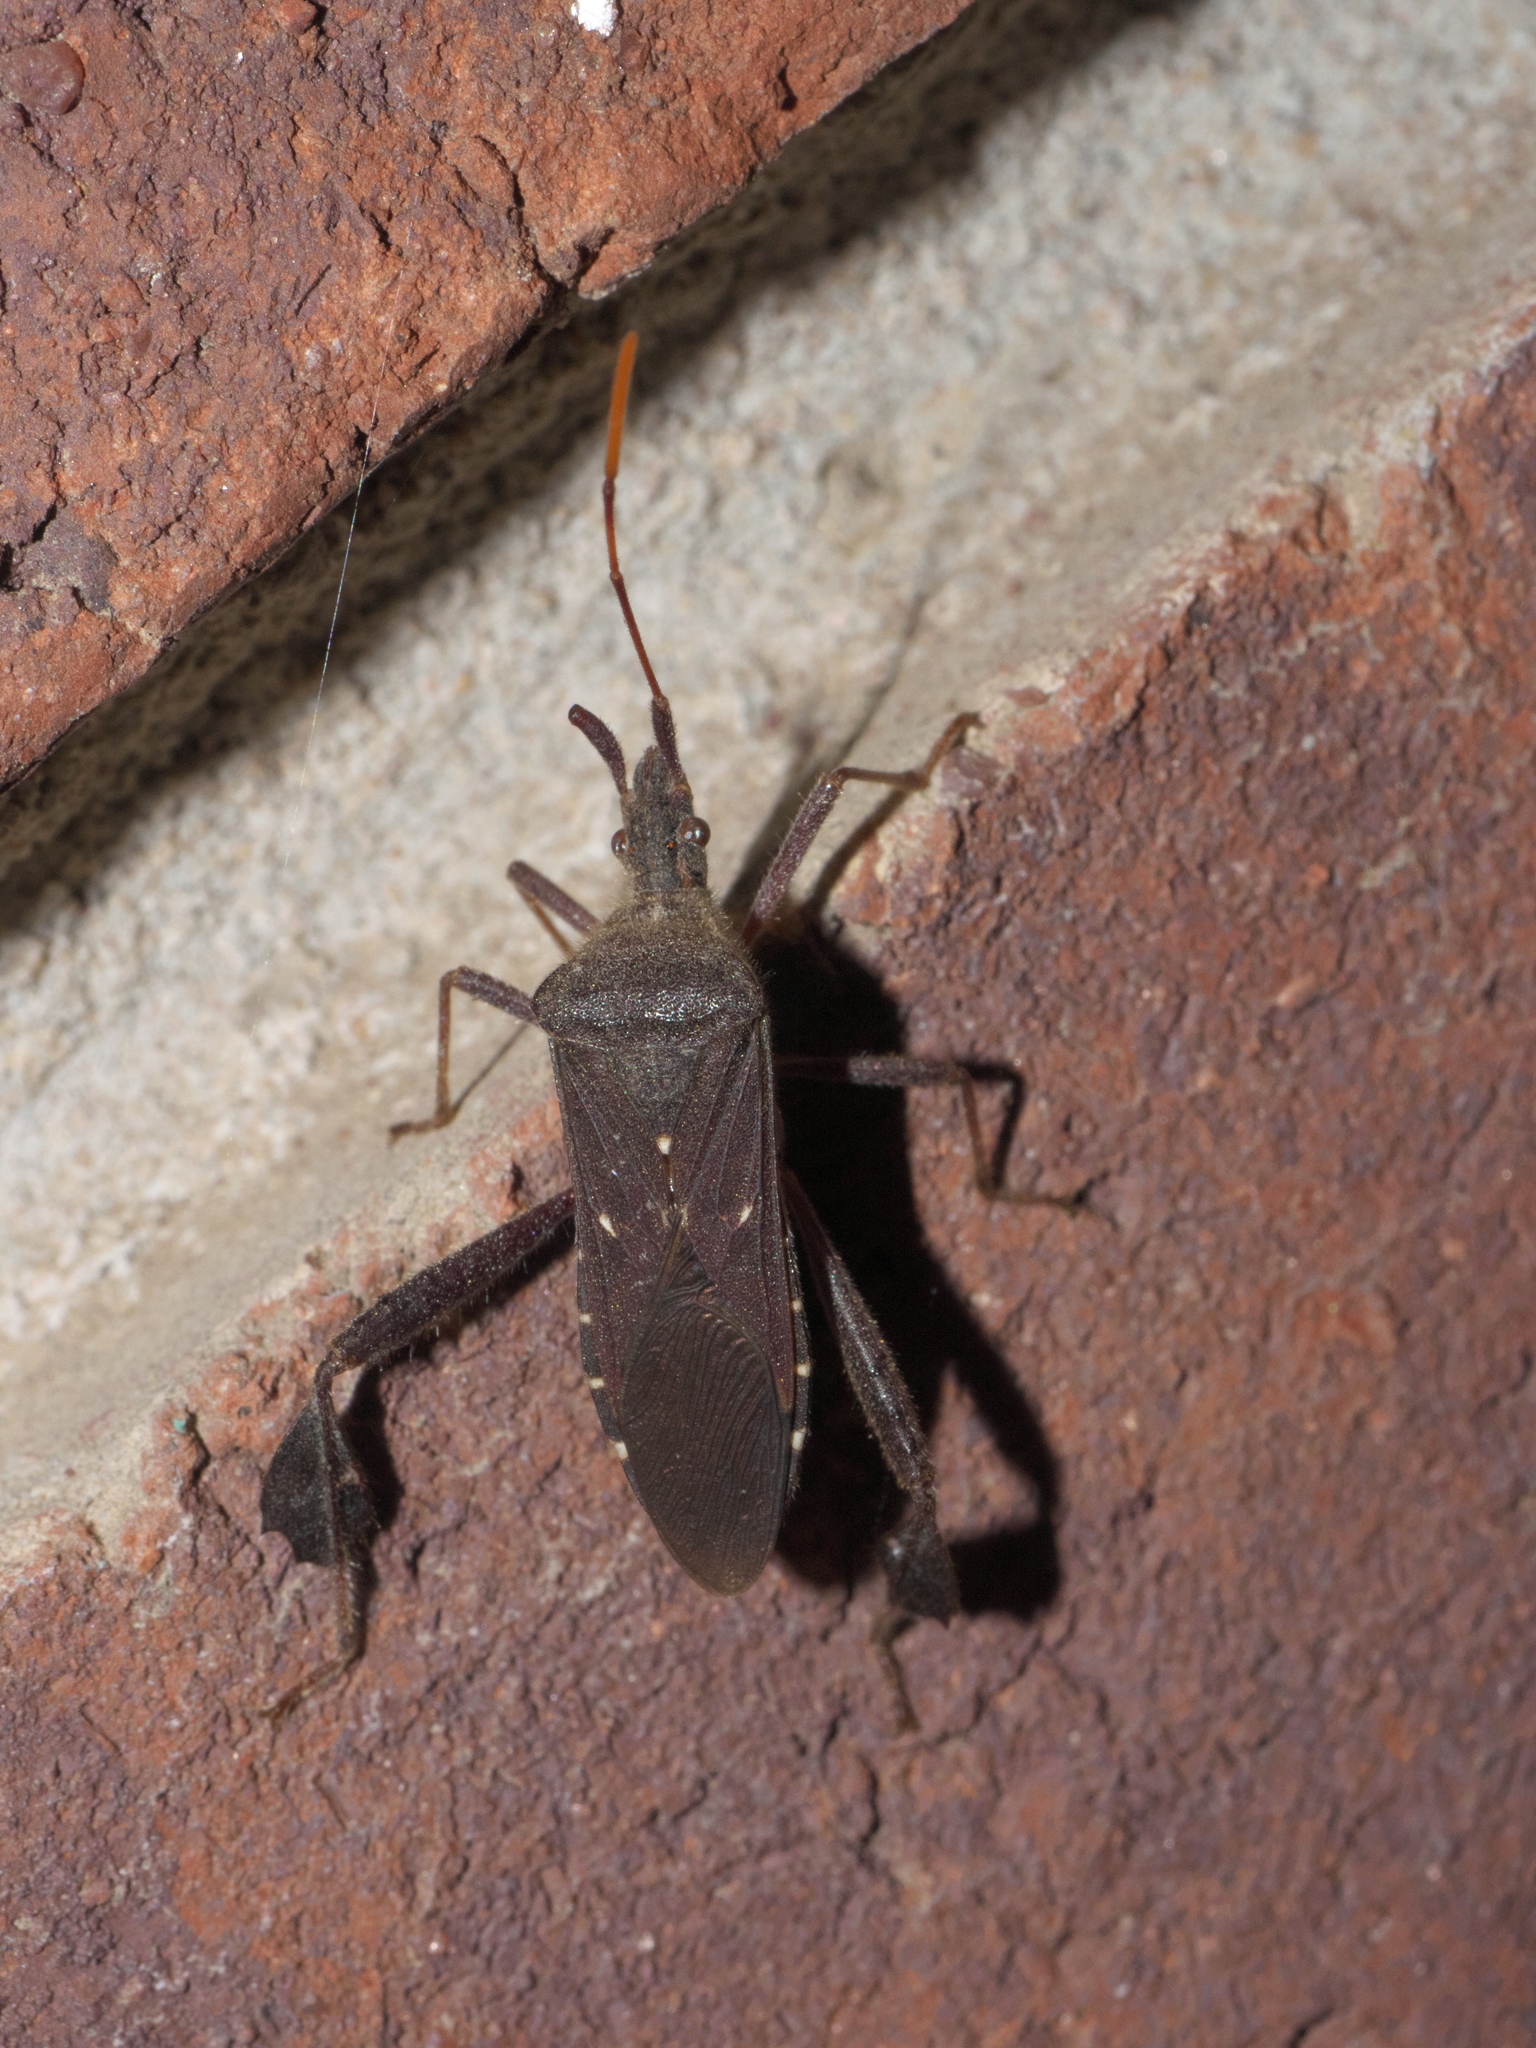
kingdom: Animalia
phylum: Arthropoda
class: Insecta
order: Hemiptera
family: Coreidae
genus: Leptoglossus
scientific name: Leptoglossus oppositus
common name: Northern leaf-footed bug
